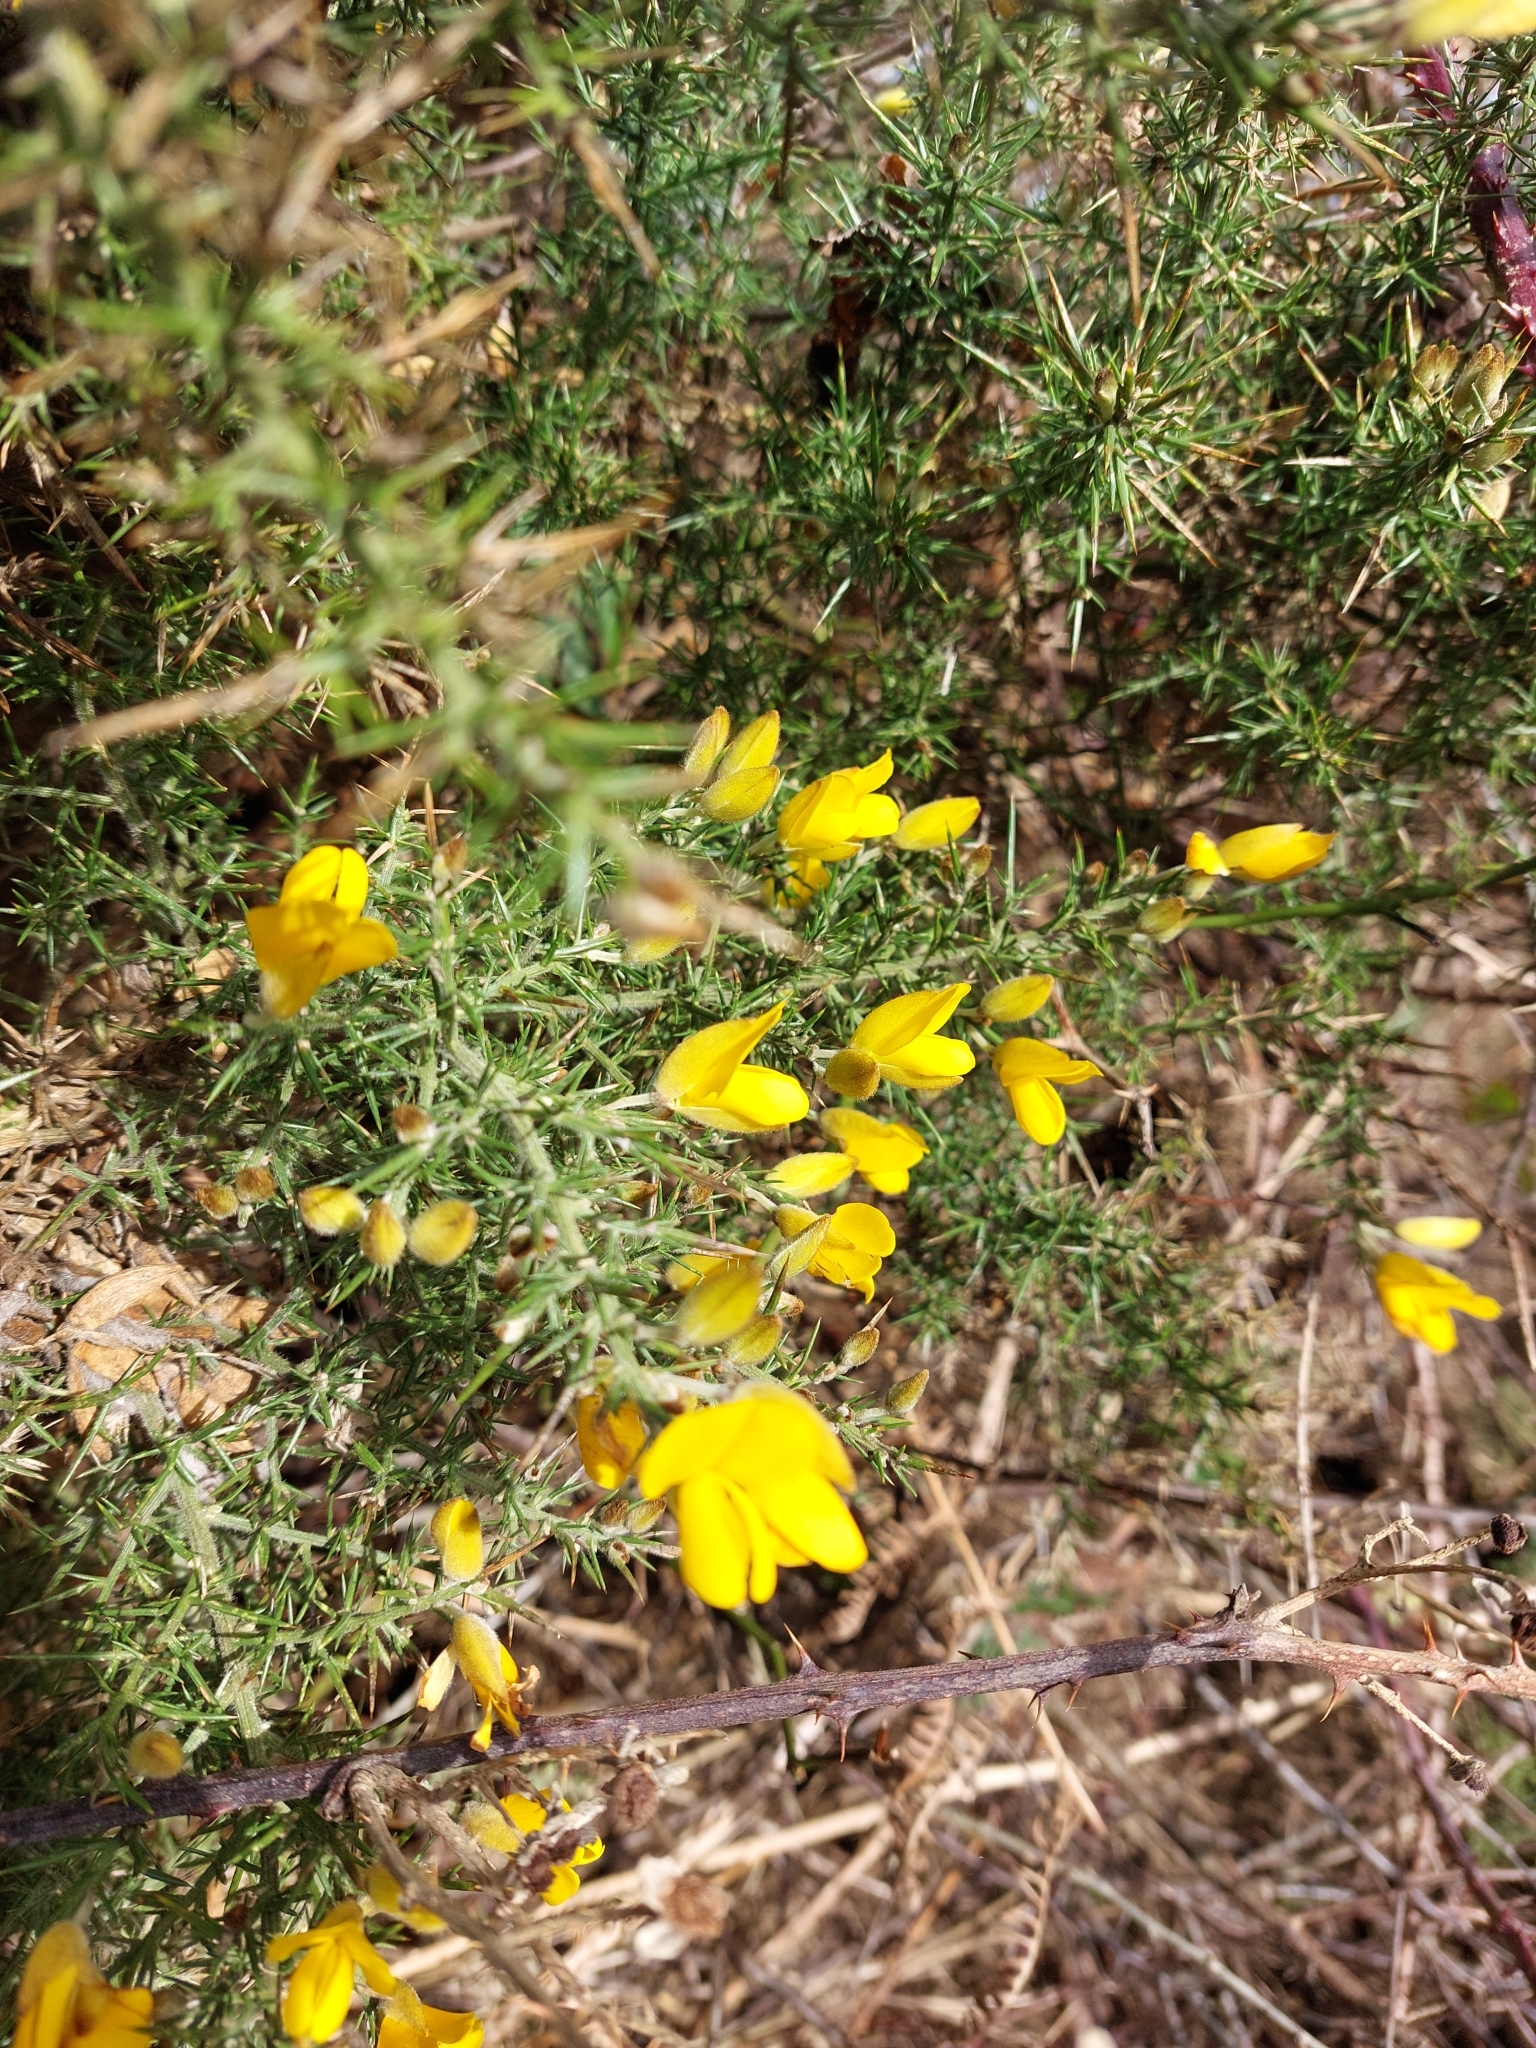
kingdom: Plantae
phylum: Tracheophyta
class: Magnoliopsida
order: Fabales
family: Fabaceae
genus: Ulex
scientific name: Ulex europaeus
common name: Common gorse
